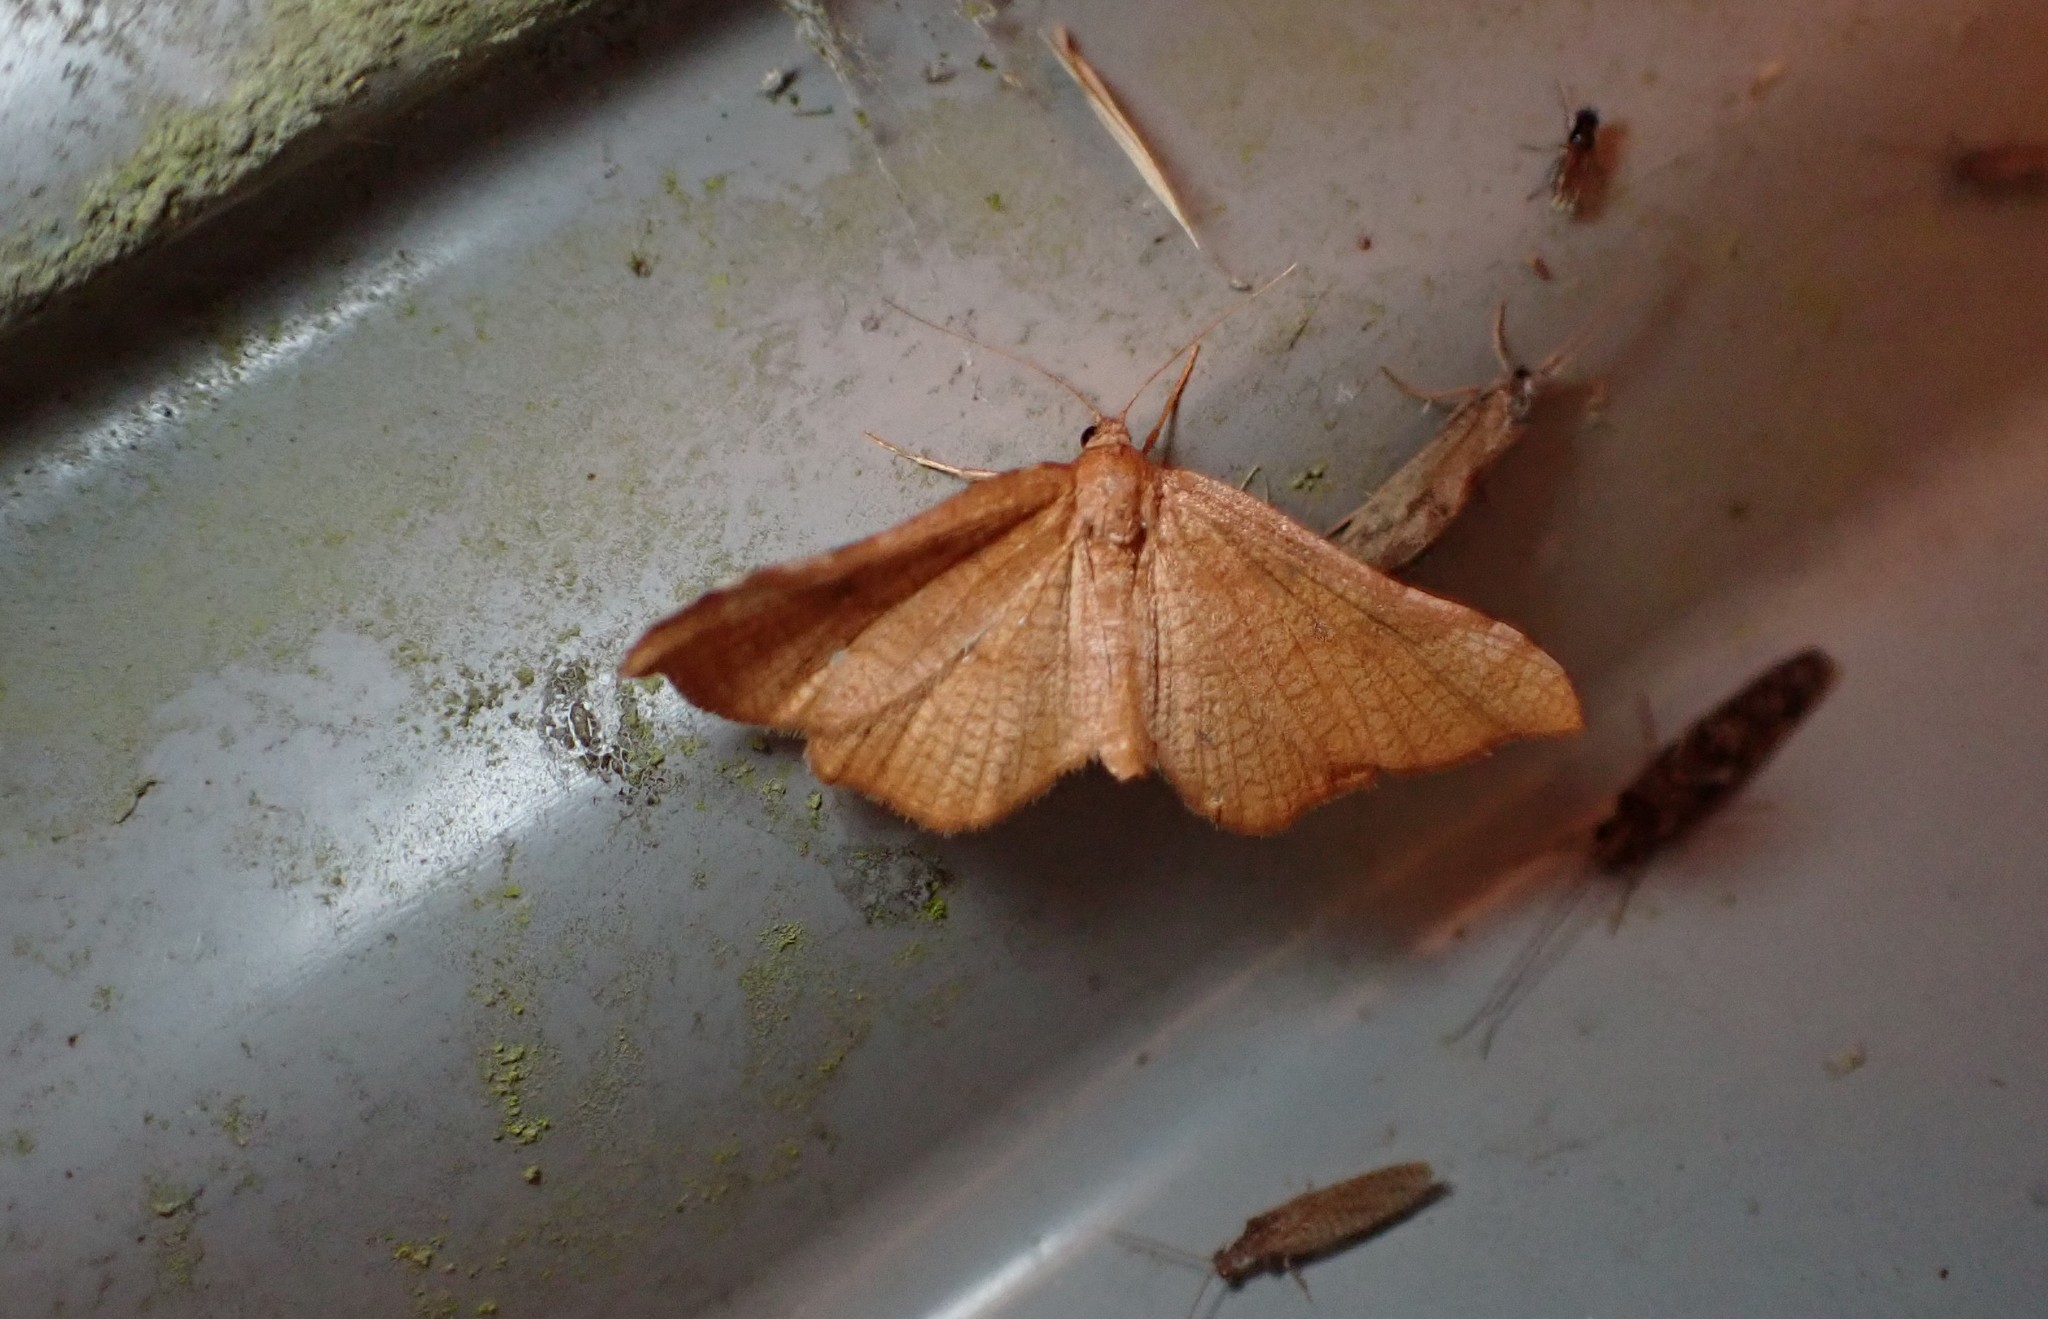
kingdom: Animalia
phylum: Arthropoda
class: Insecta
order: Lepidoptera
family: Thyrididae
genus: Morova
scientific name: Morova subfasciata
